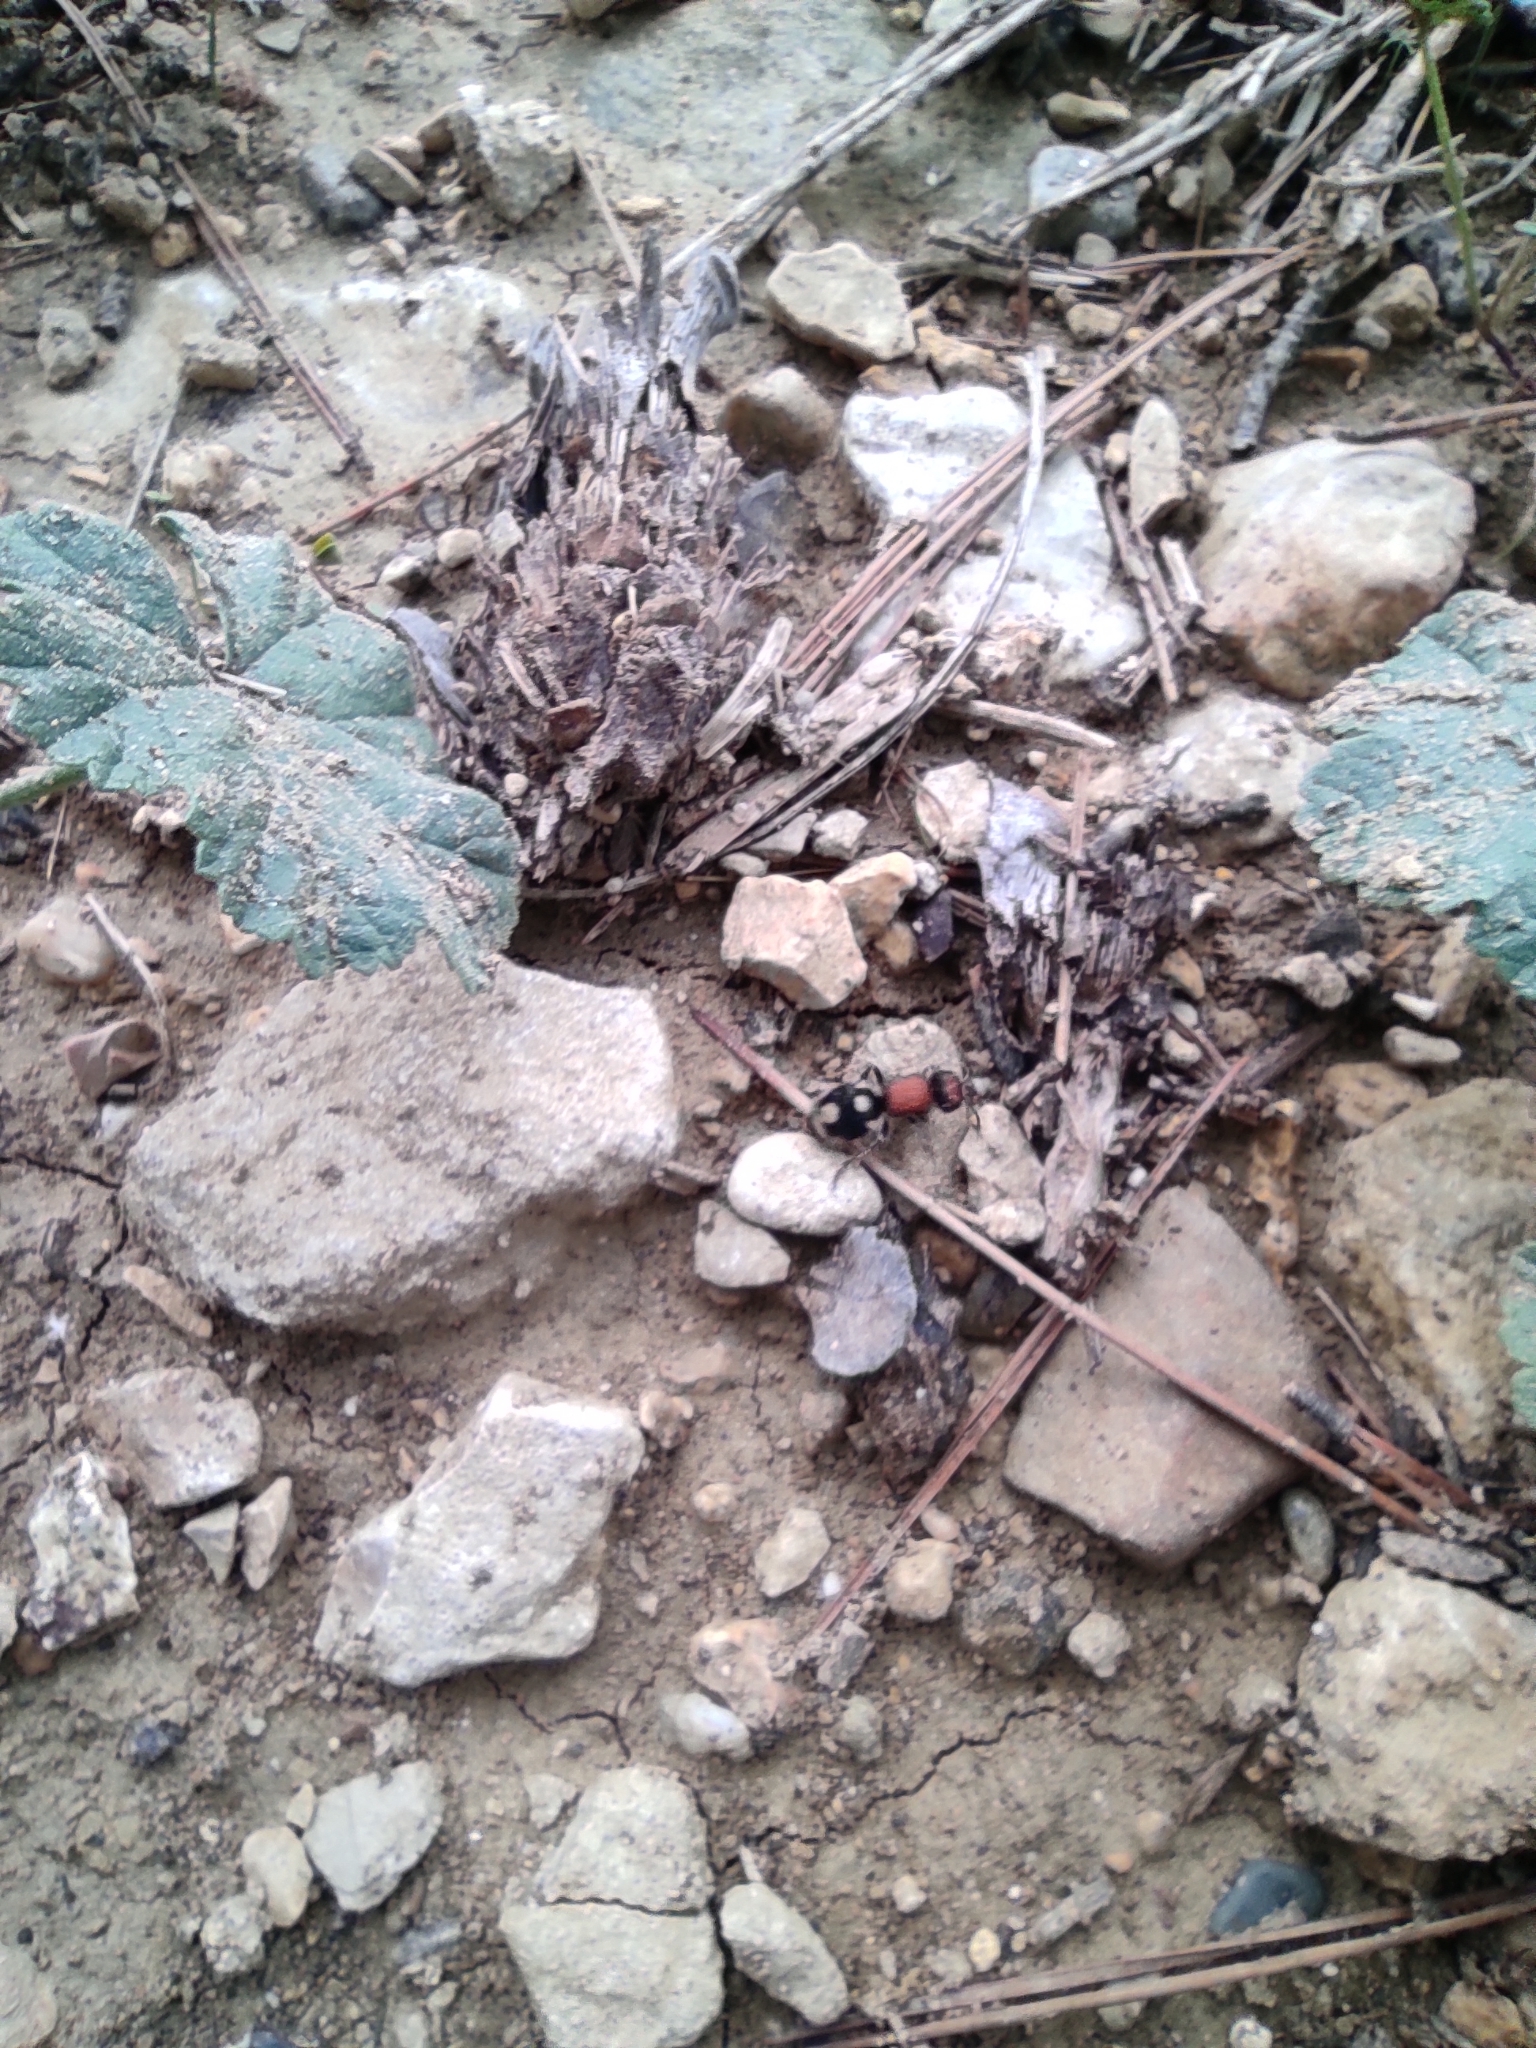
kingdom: Animalia
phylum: Arthropoda
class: Insecta
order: Hymenoptera
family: Mutillidae
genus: Ronisia
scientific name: Ronisia brutia
